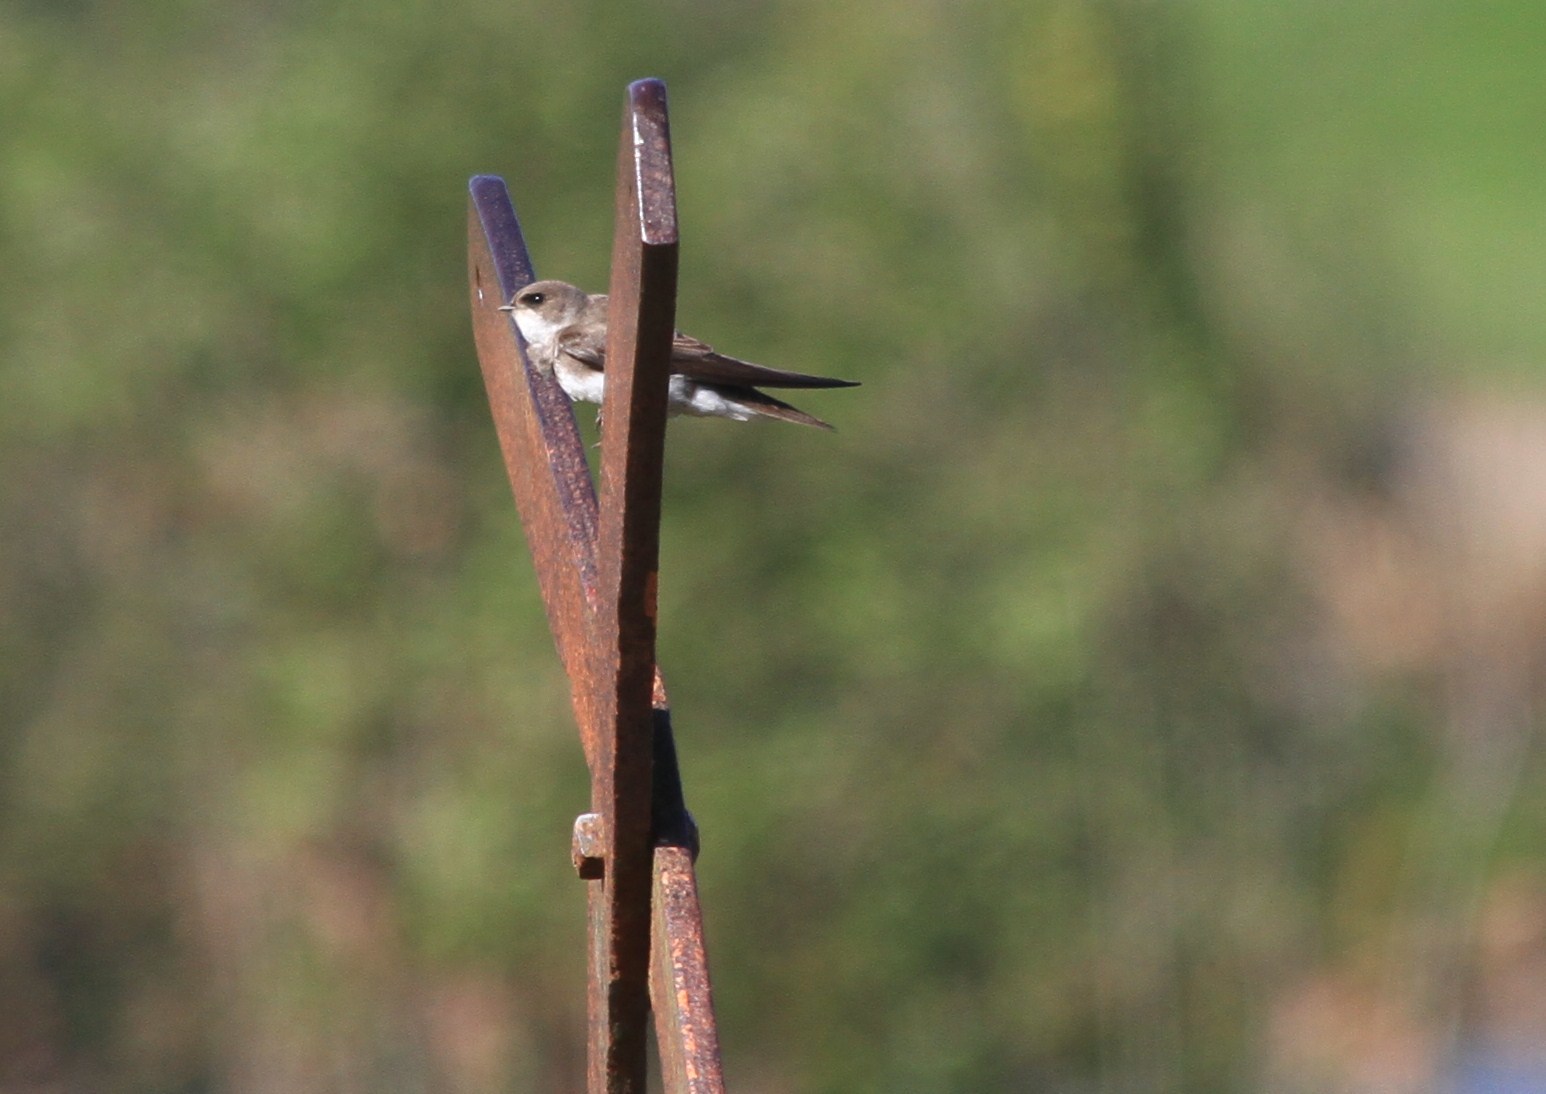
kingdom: Animalia
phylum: Chordata
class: Aves
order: Passeriformes
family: Hirundinidae
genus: Riparia
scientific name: Riparia riparia
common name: Sand martin
